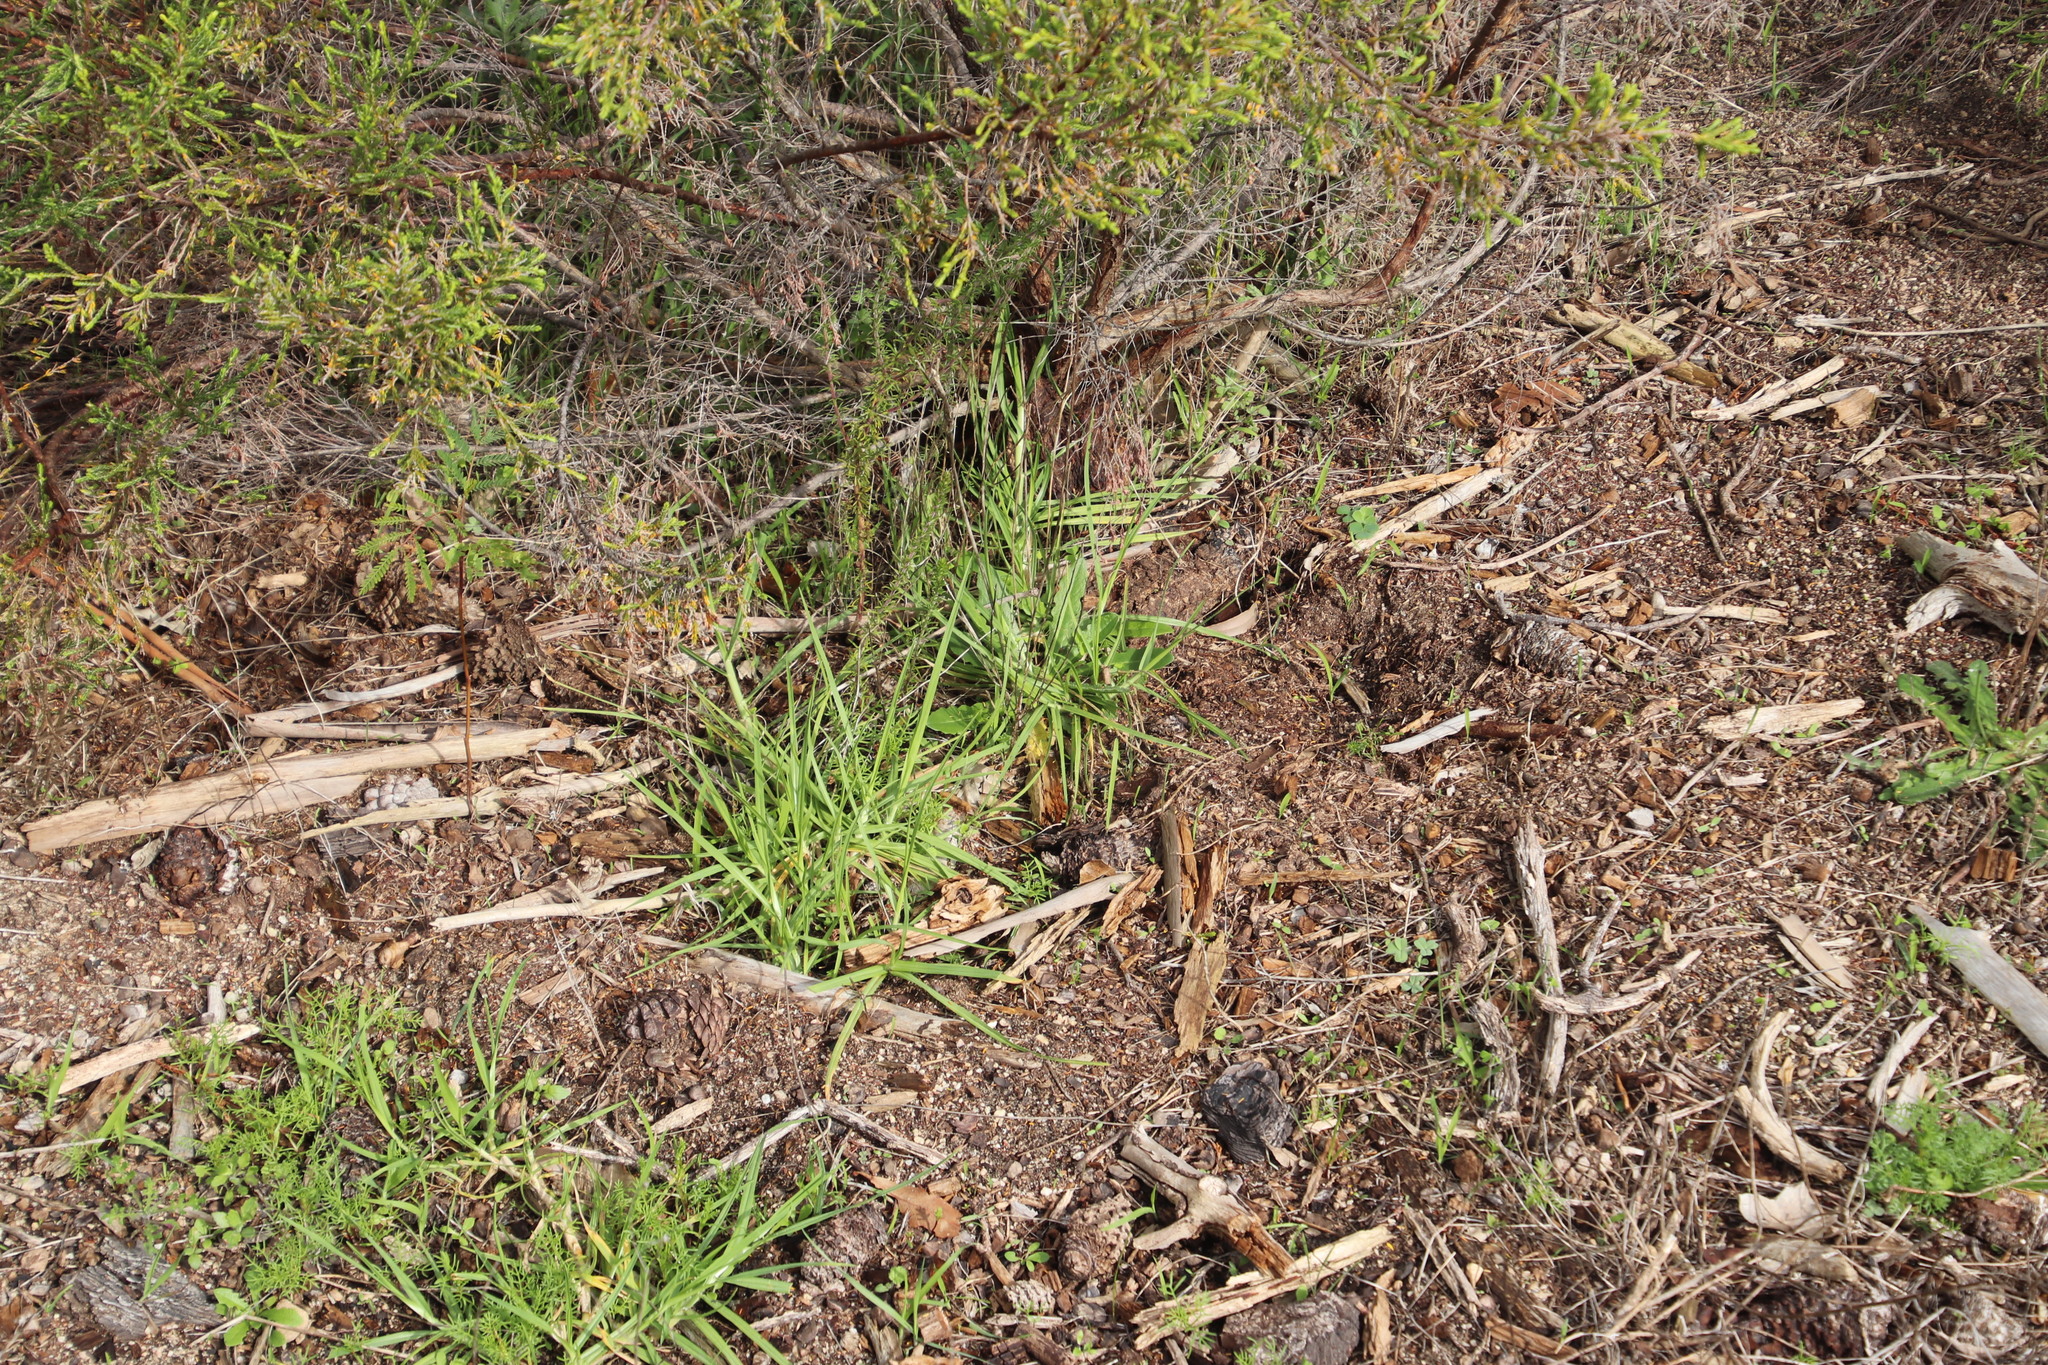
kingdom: Plantae
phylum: Tracheophyta
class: Liliopsida
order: Poales
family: Poaceae
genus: Cenchrus
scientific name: Cenchrus clandestinus
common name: Kikuyugrass
